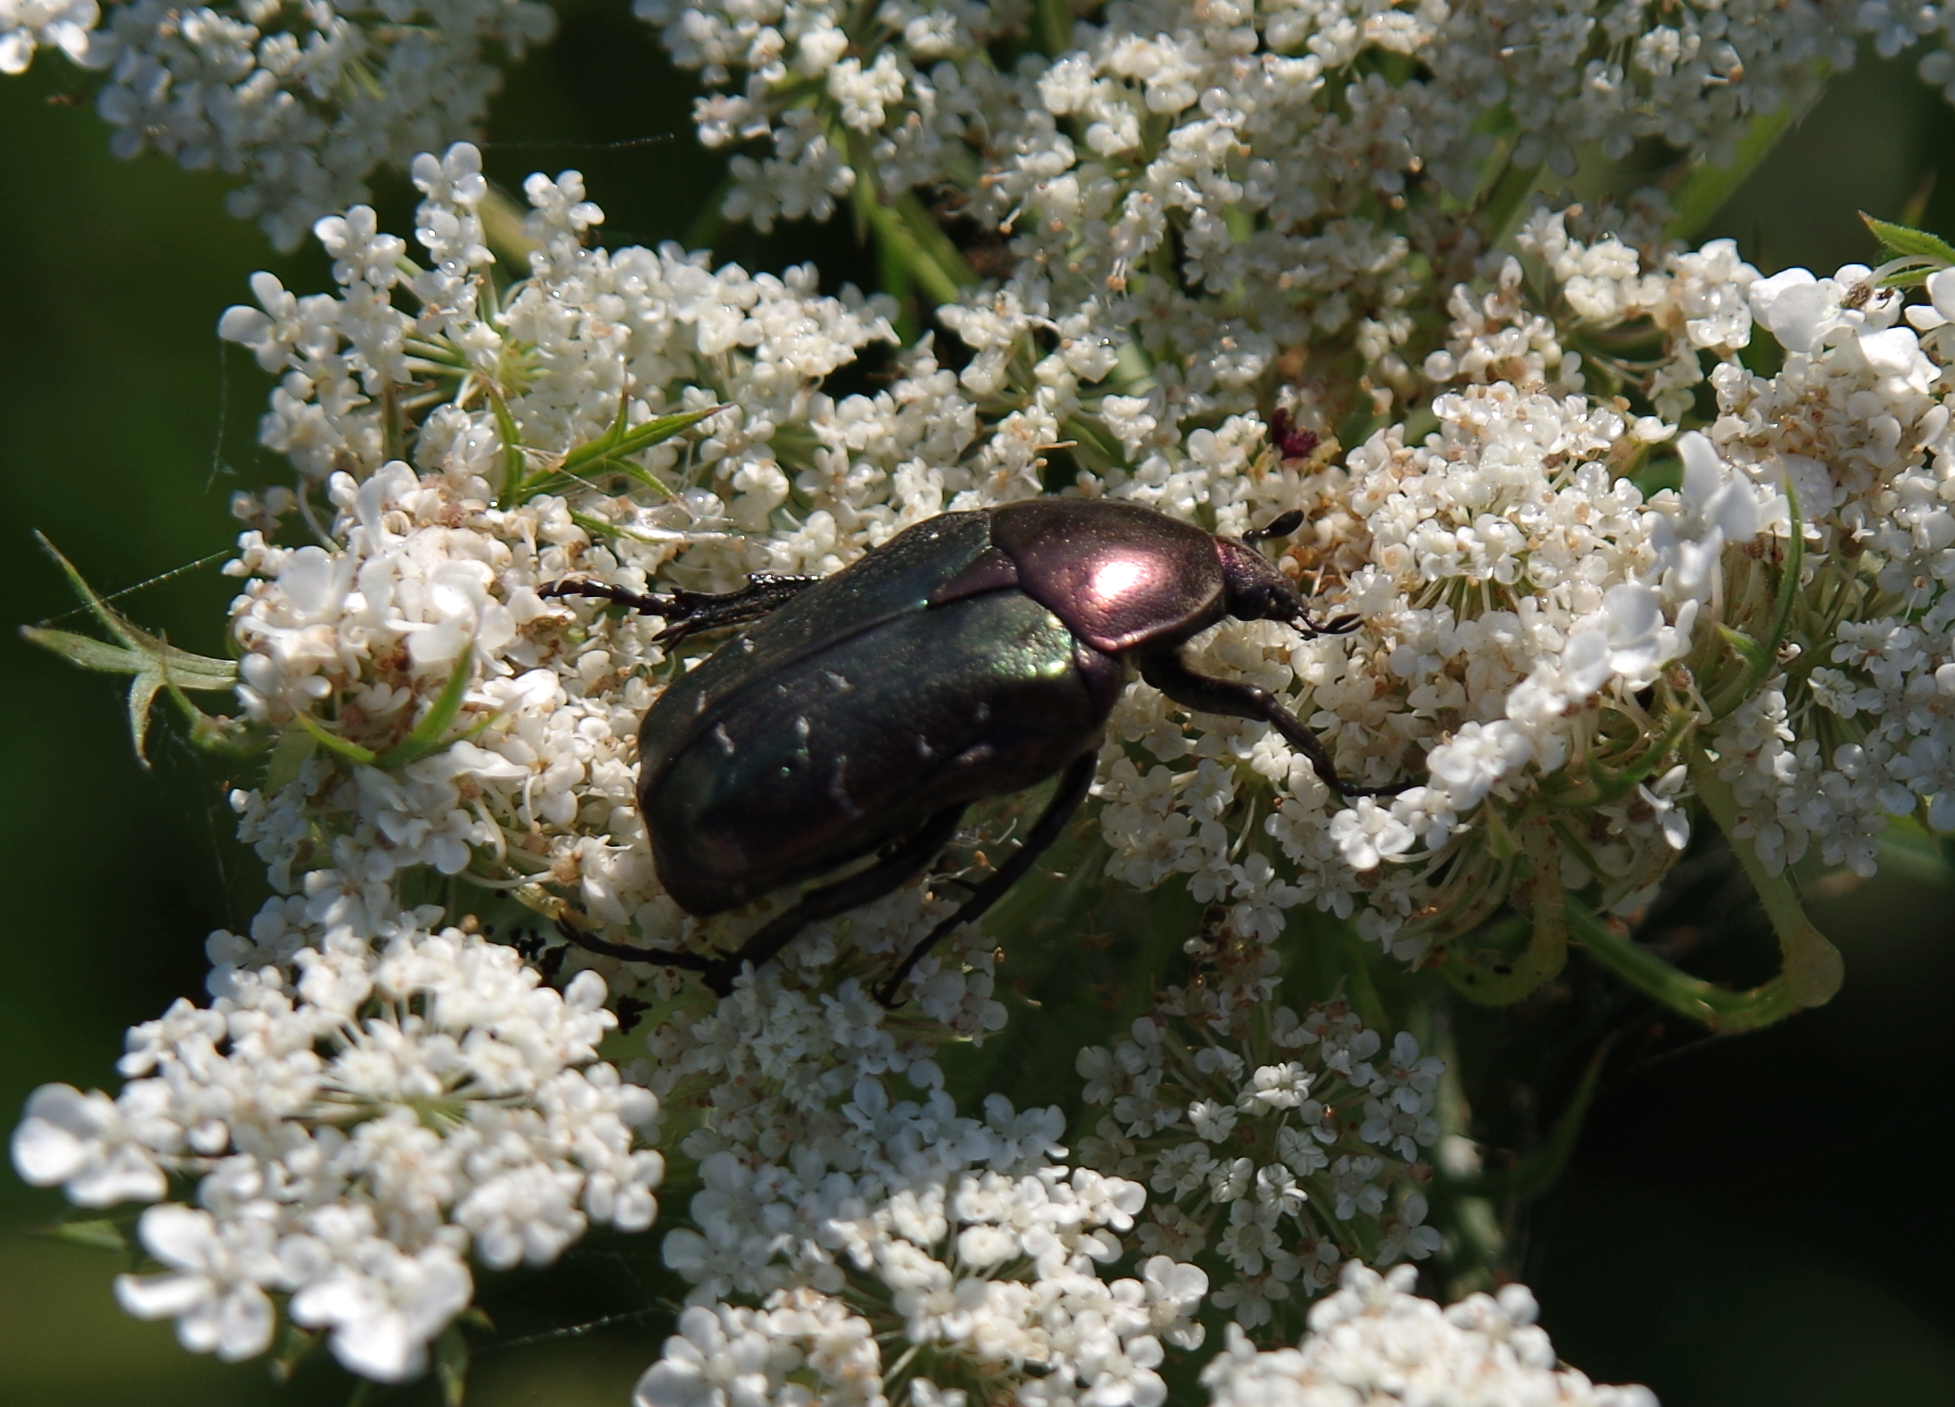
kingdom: Animalia
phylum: Arthropoda
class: Insecta
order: Coleoptera
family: Scarabaeidae
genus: Cetonia
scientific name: Cetonia aurata
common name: Rose chafer
